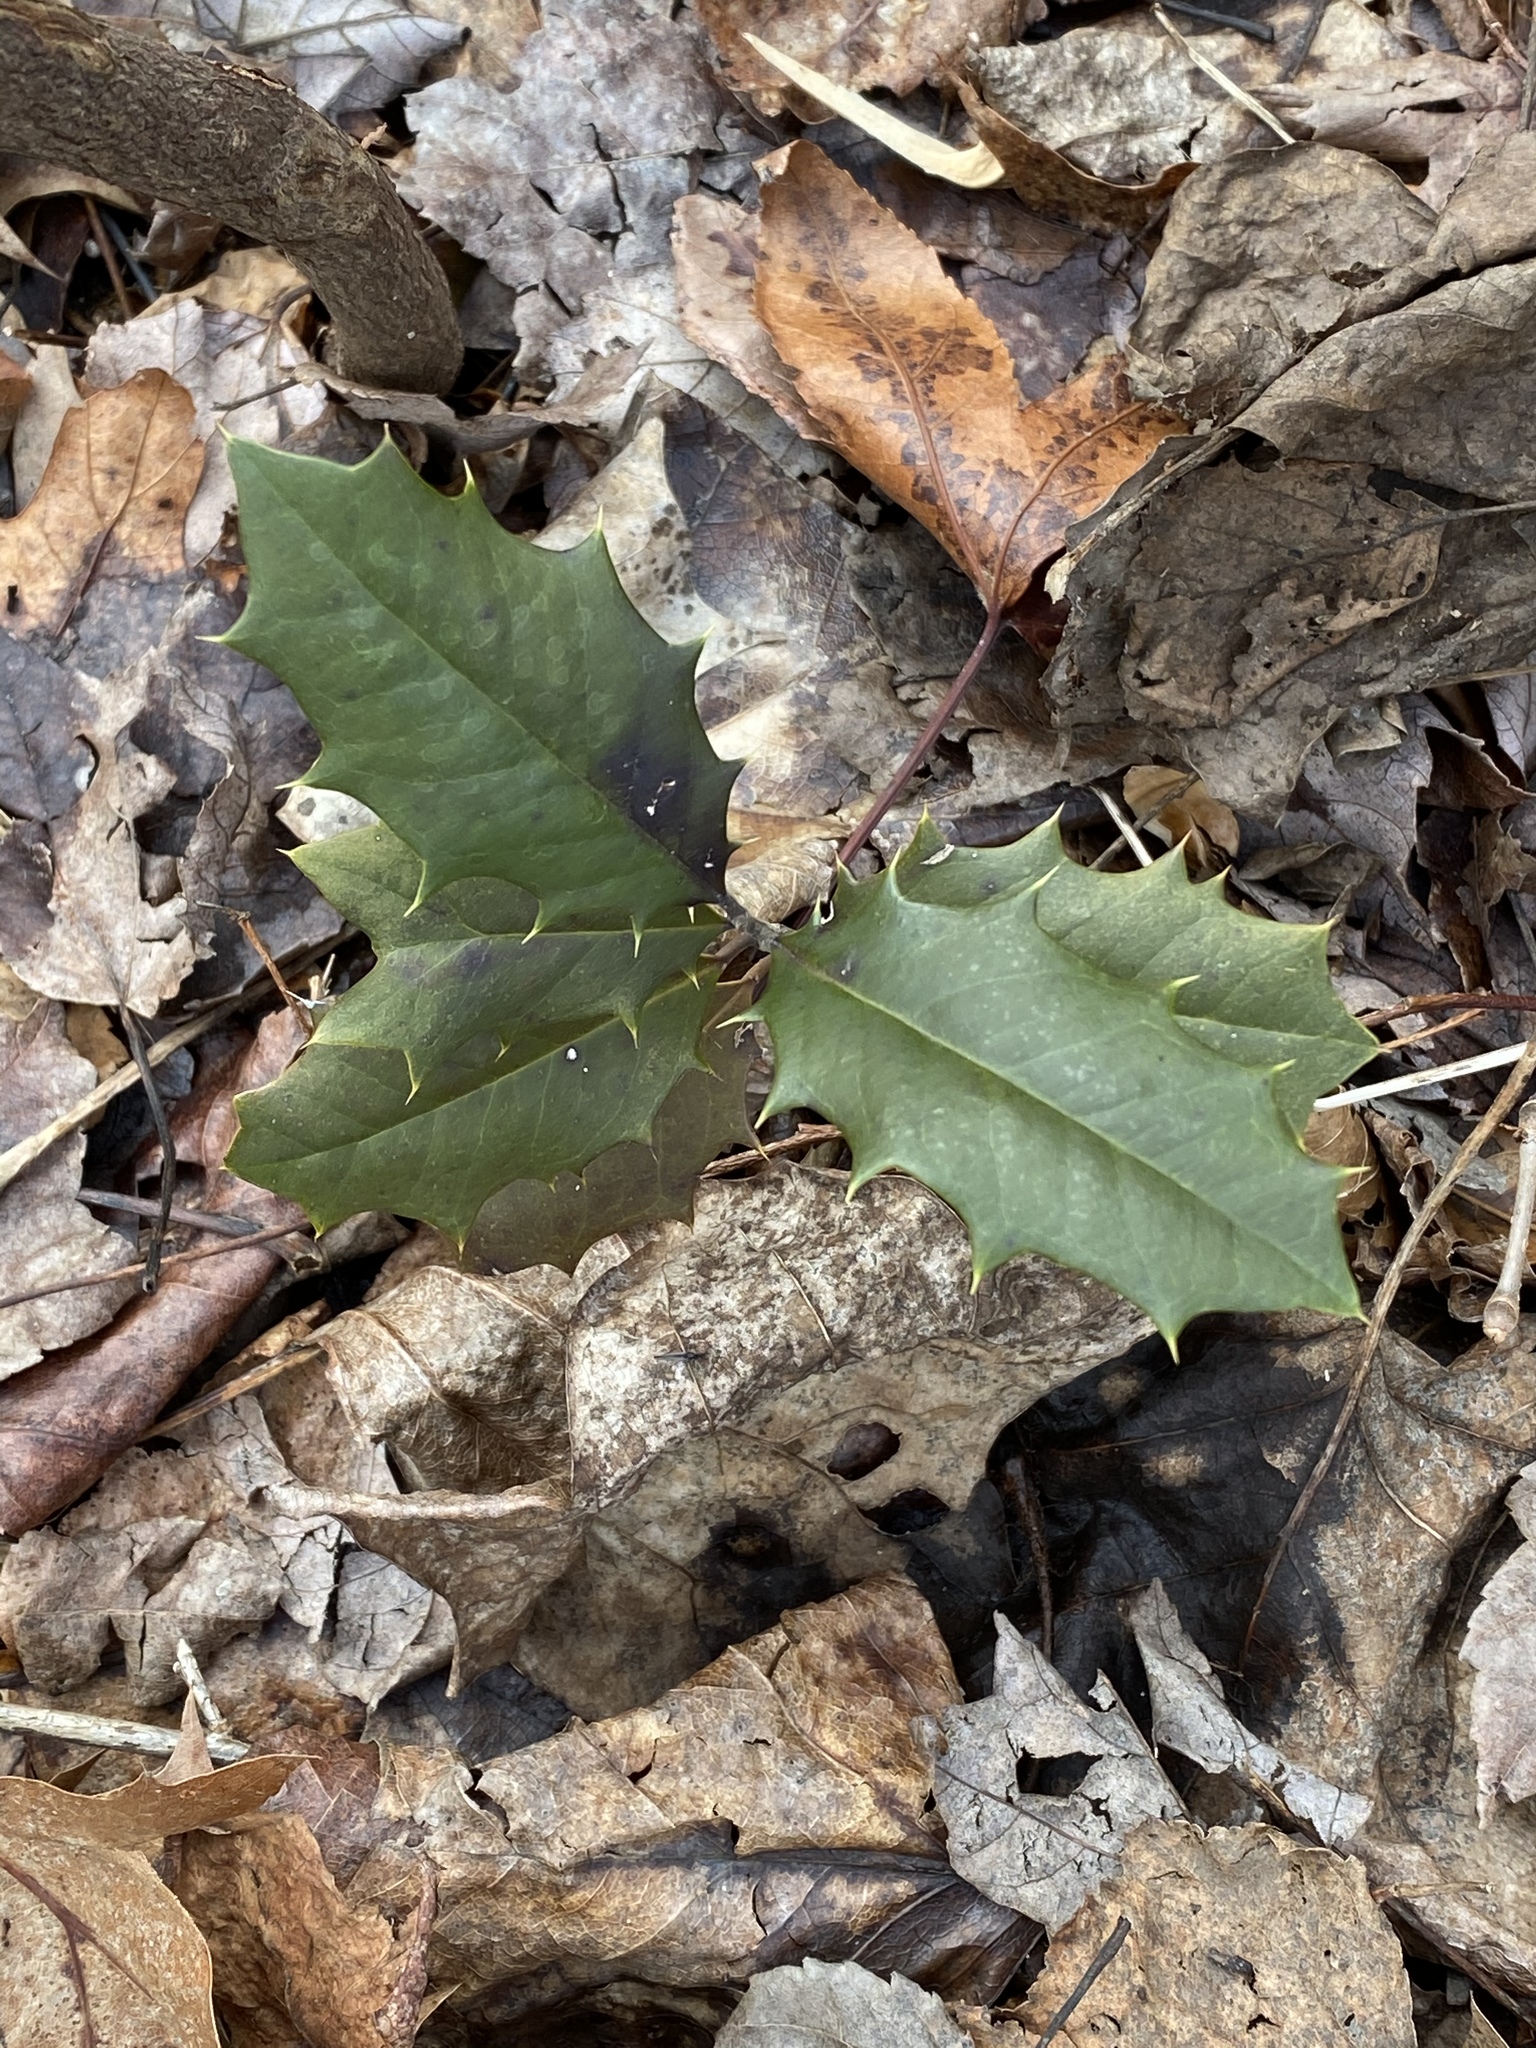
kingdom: Plantae
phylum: Tracheophyta
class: Magnoliopsida
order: Aquifoliales
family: Aquifoliaceae
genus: Ilex
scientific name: Ilex opaca
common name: American holly
